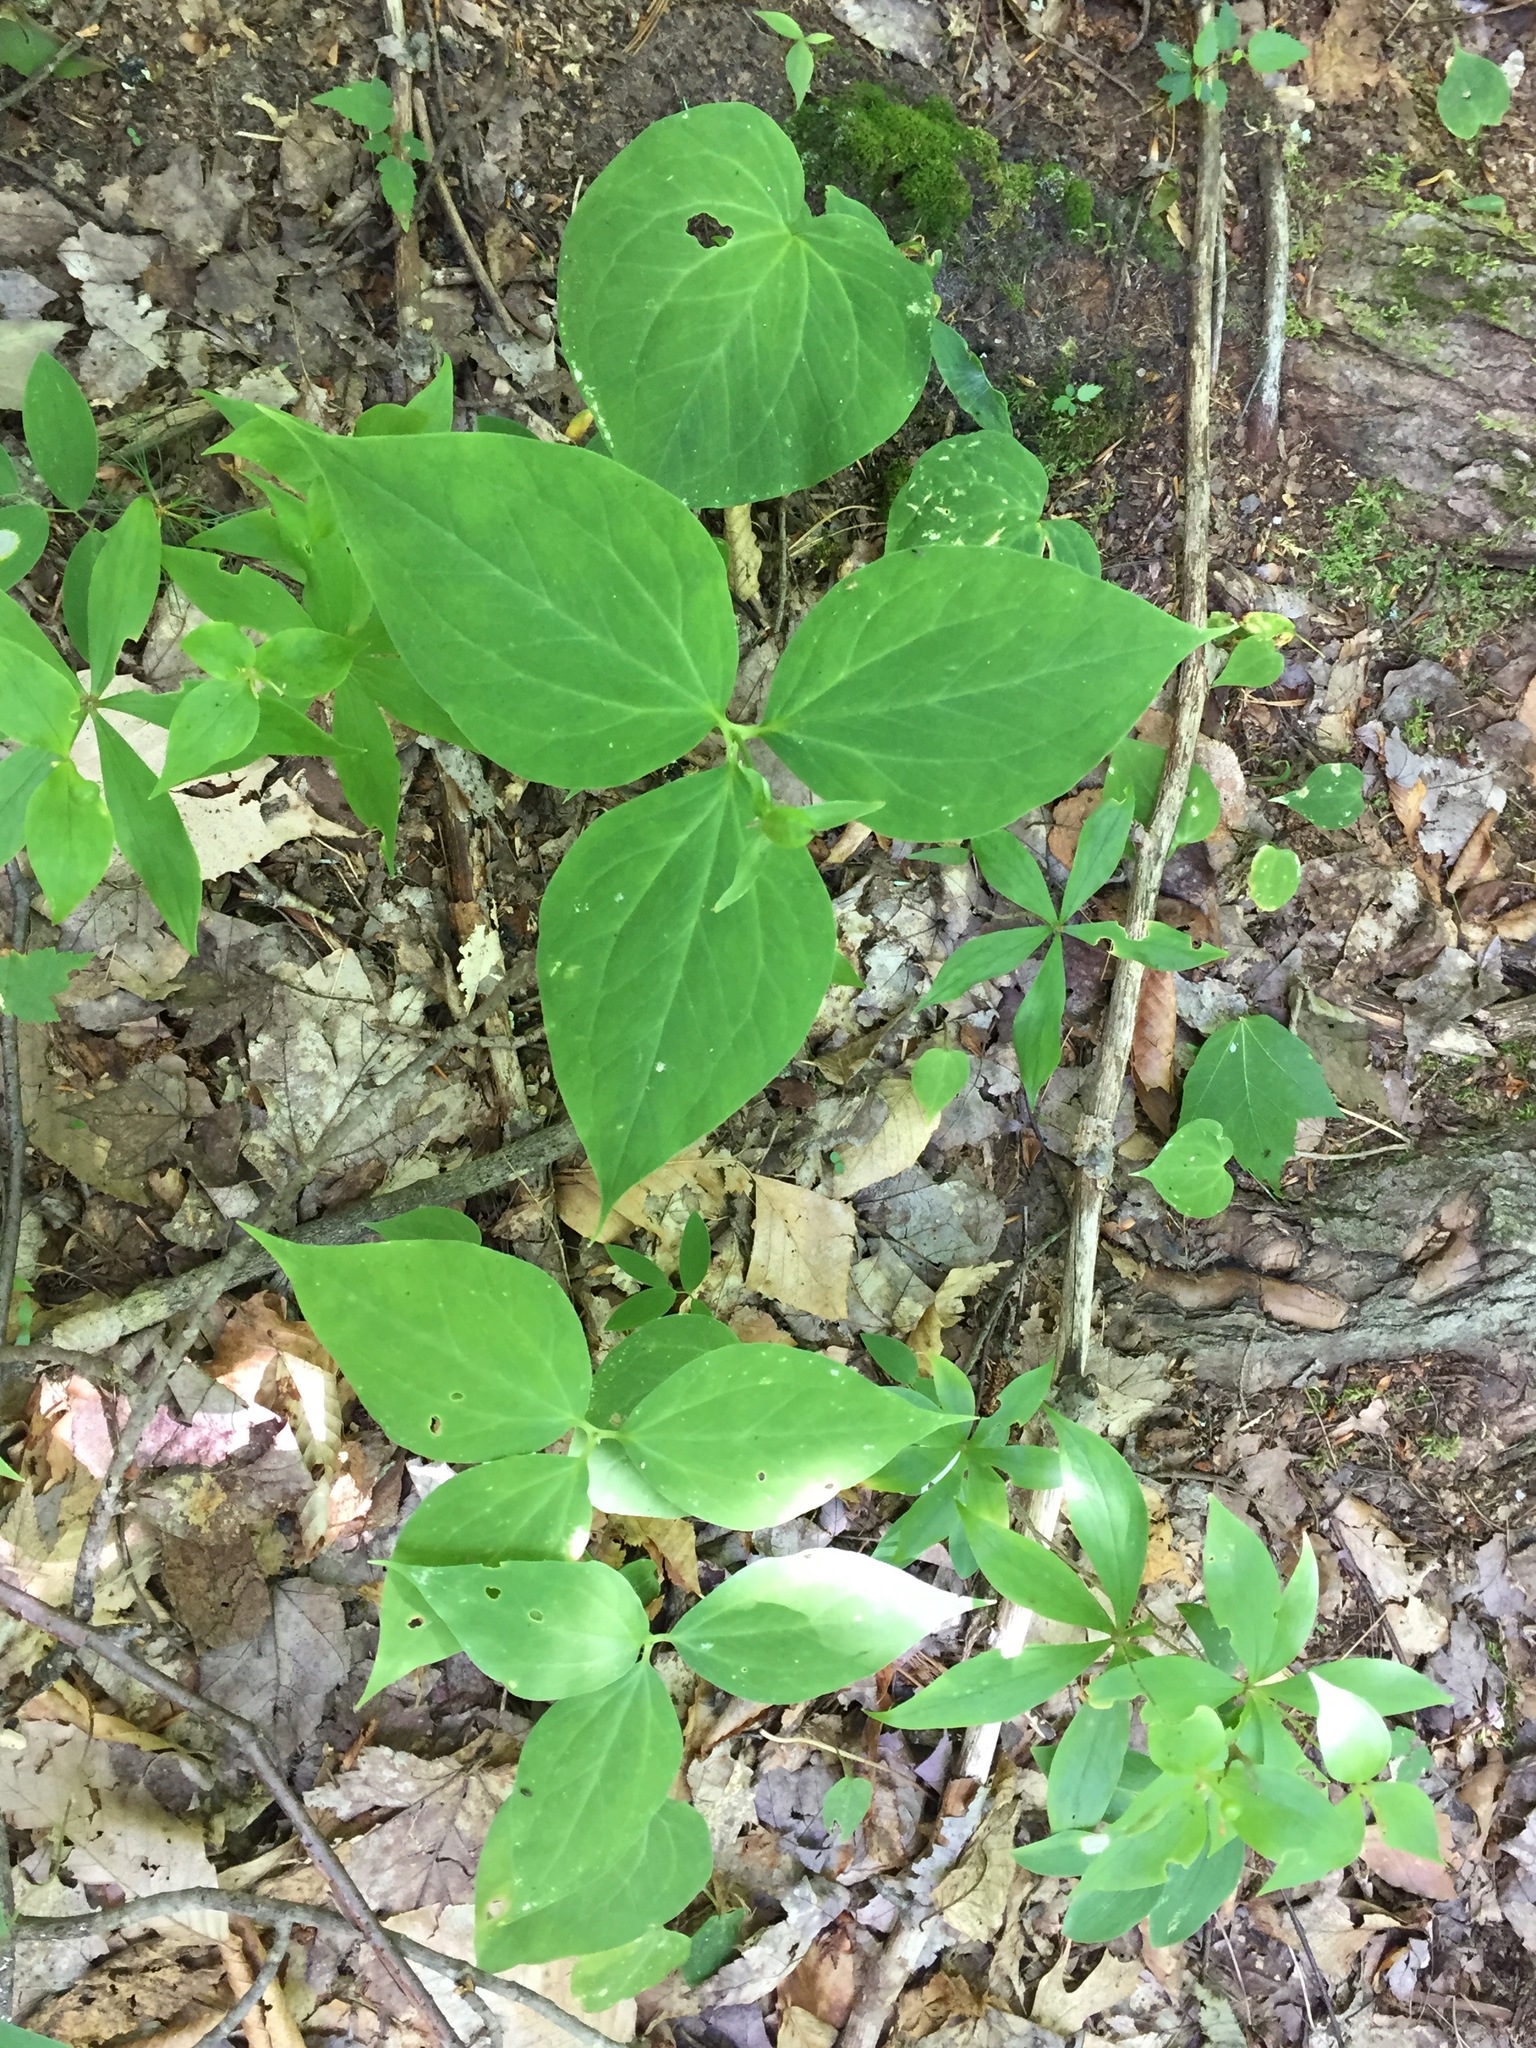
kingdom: Plantae
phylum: Tracheophyta
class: Liliopsida
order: Liliales
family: Melanthiaceae
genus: Trillium
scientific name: Trillium undulatum
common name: Paint trillium
